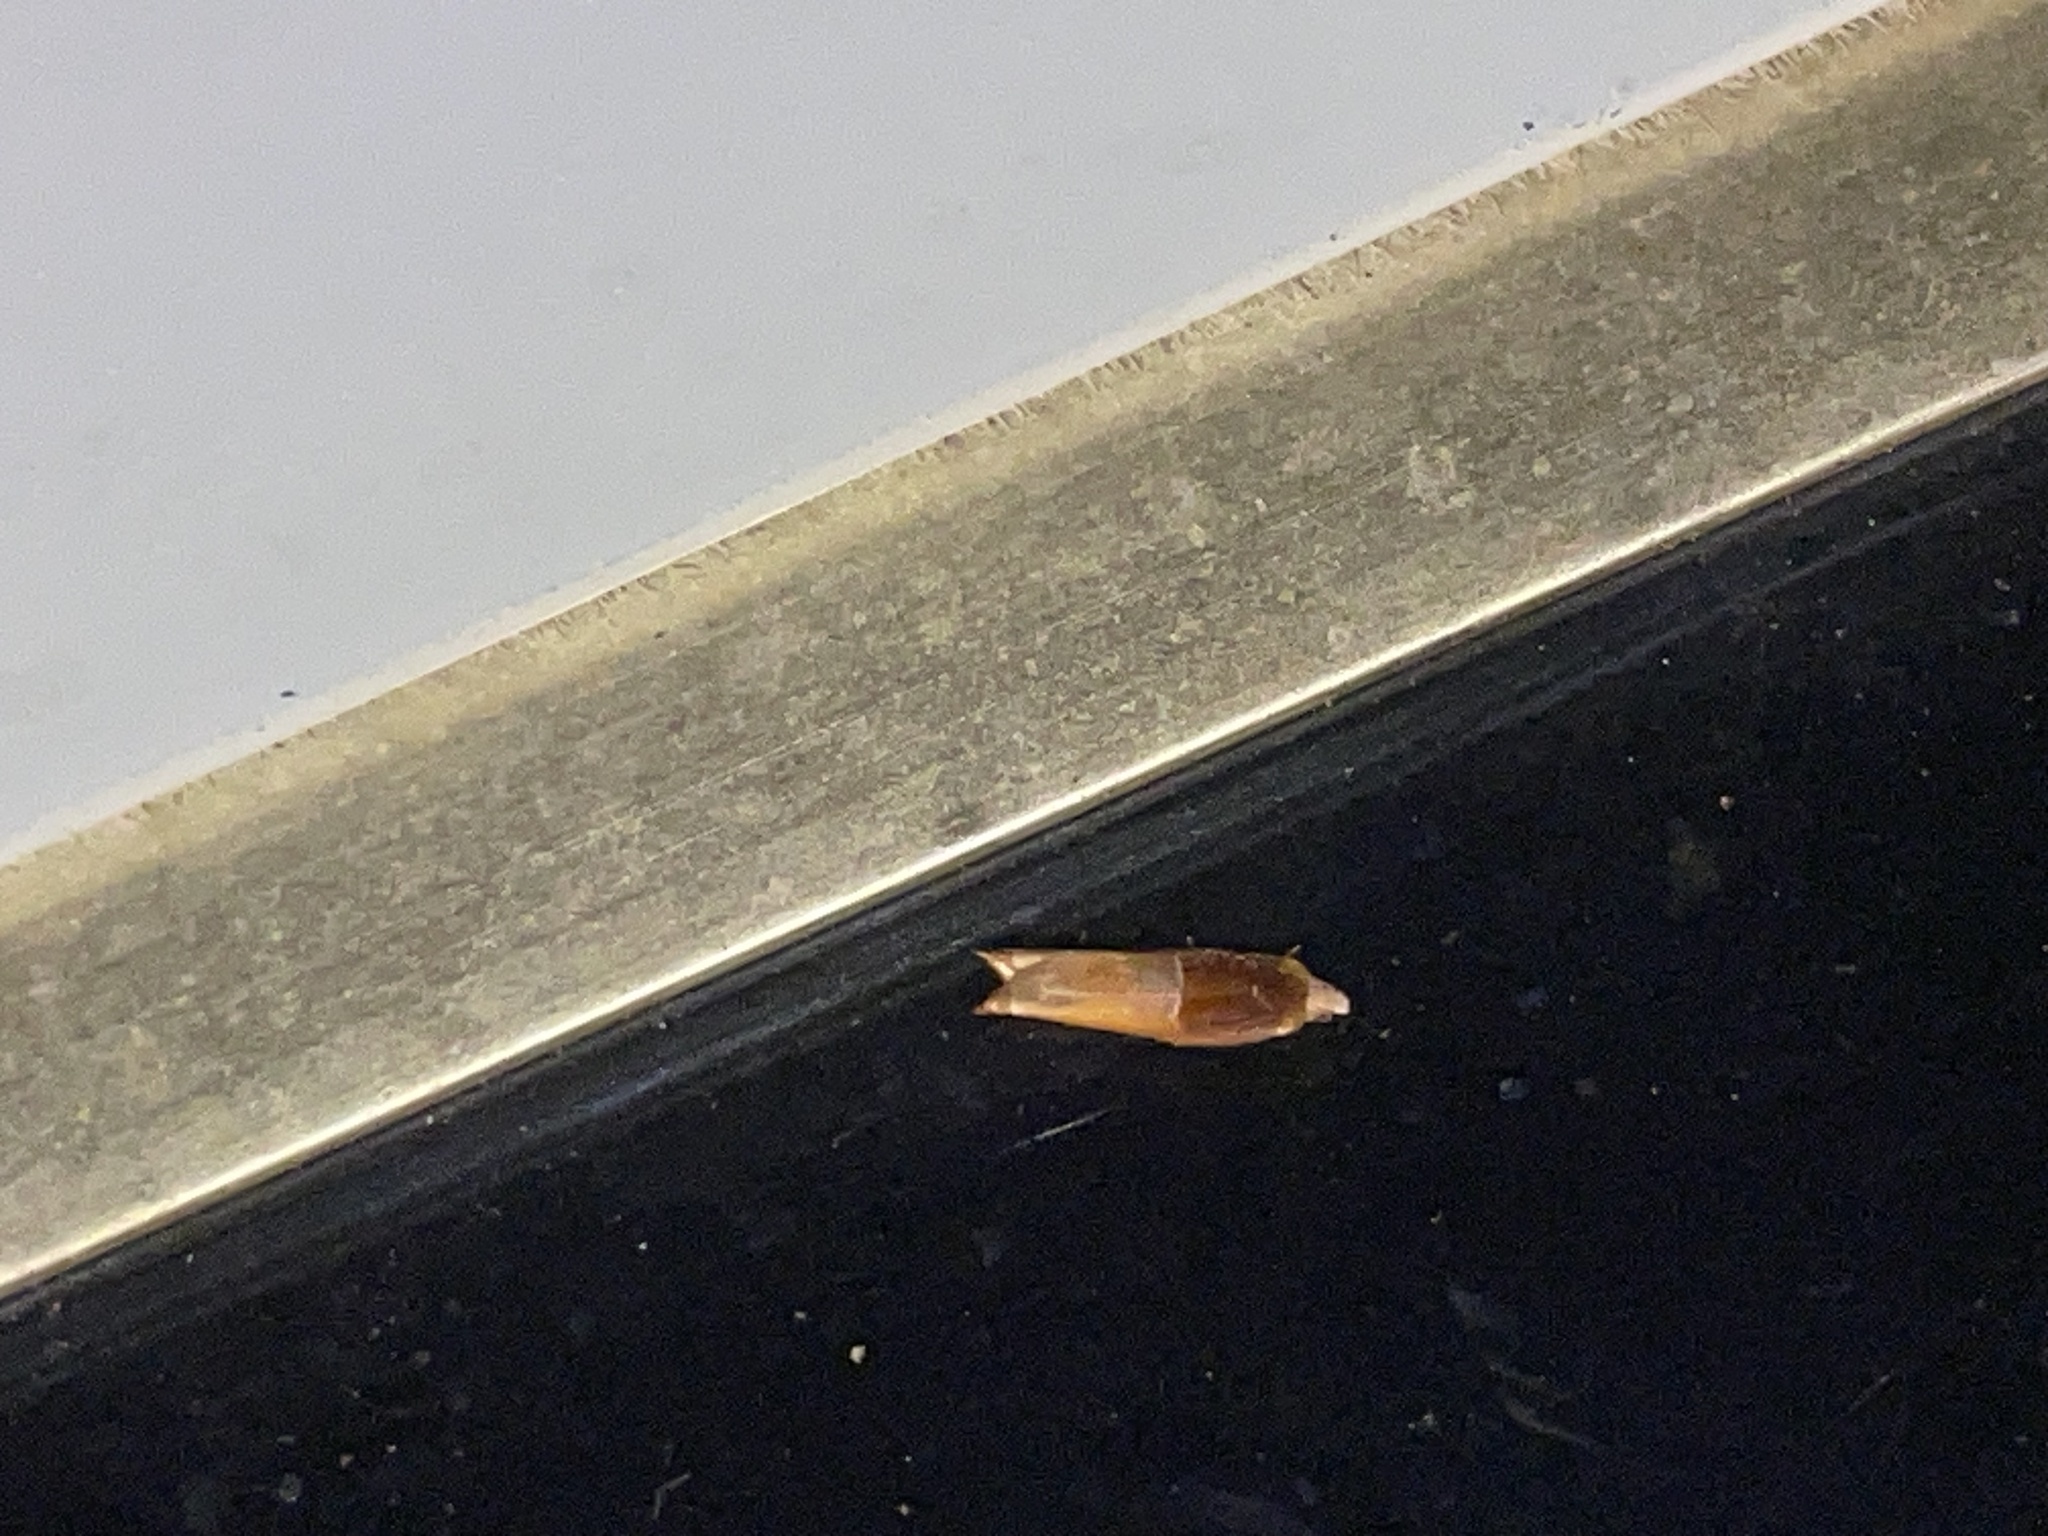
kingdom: Animalia
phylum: Arthropoda
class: Insecta
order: Lepidoptera
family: Tortricidae
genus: Ancylis
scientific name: Ancylis divisana
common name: Two-toned ancylis moth
